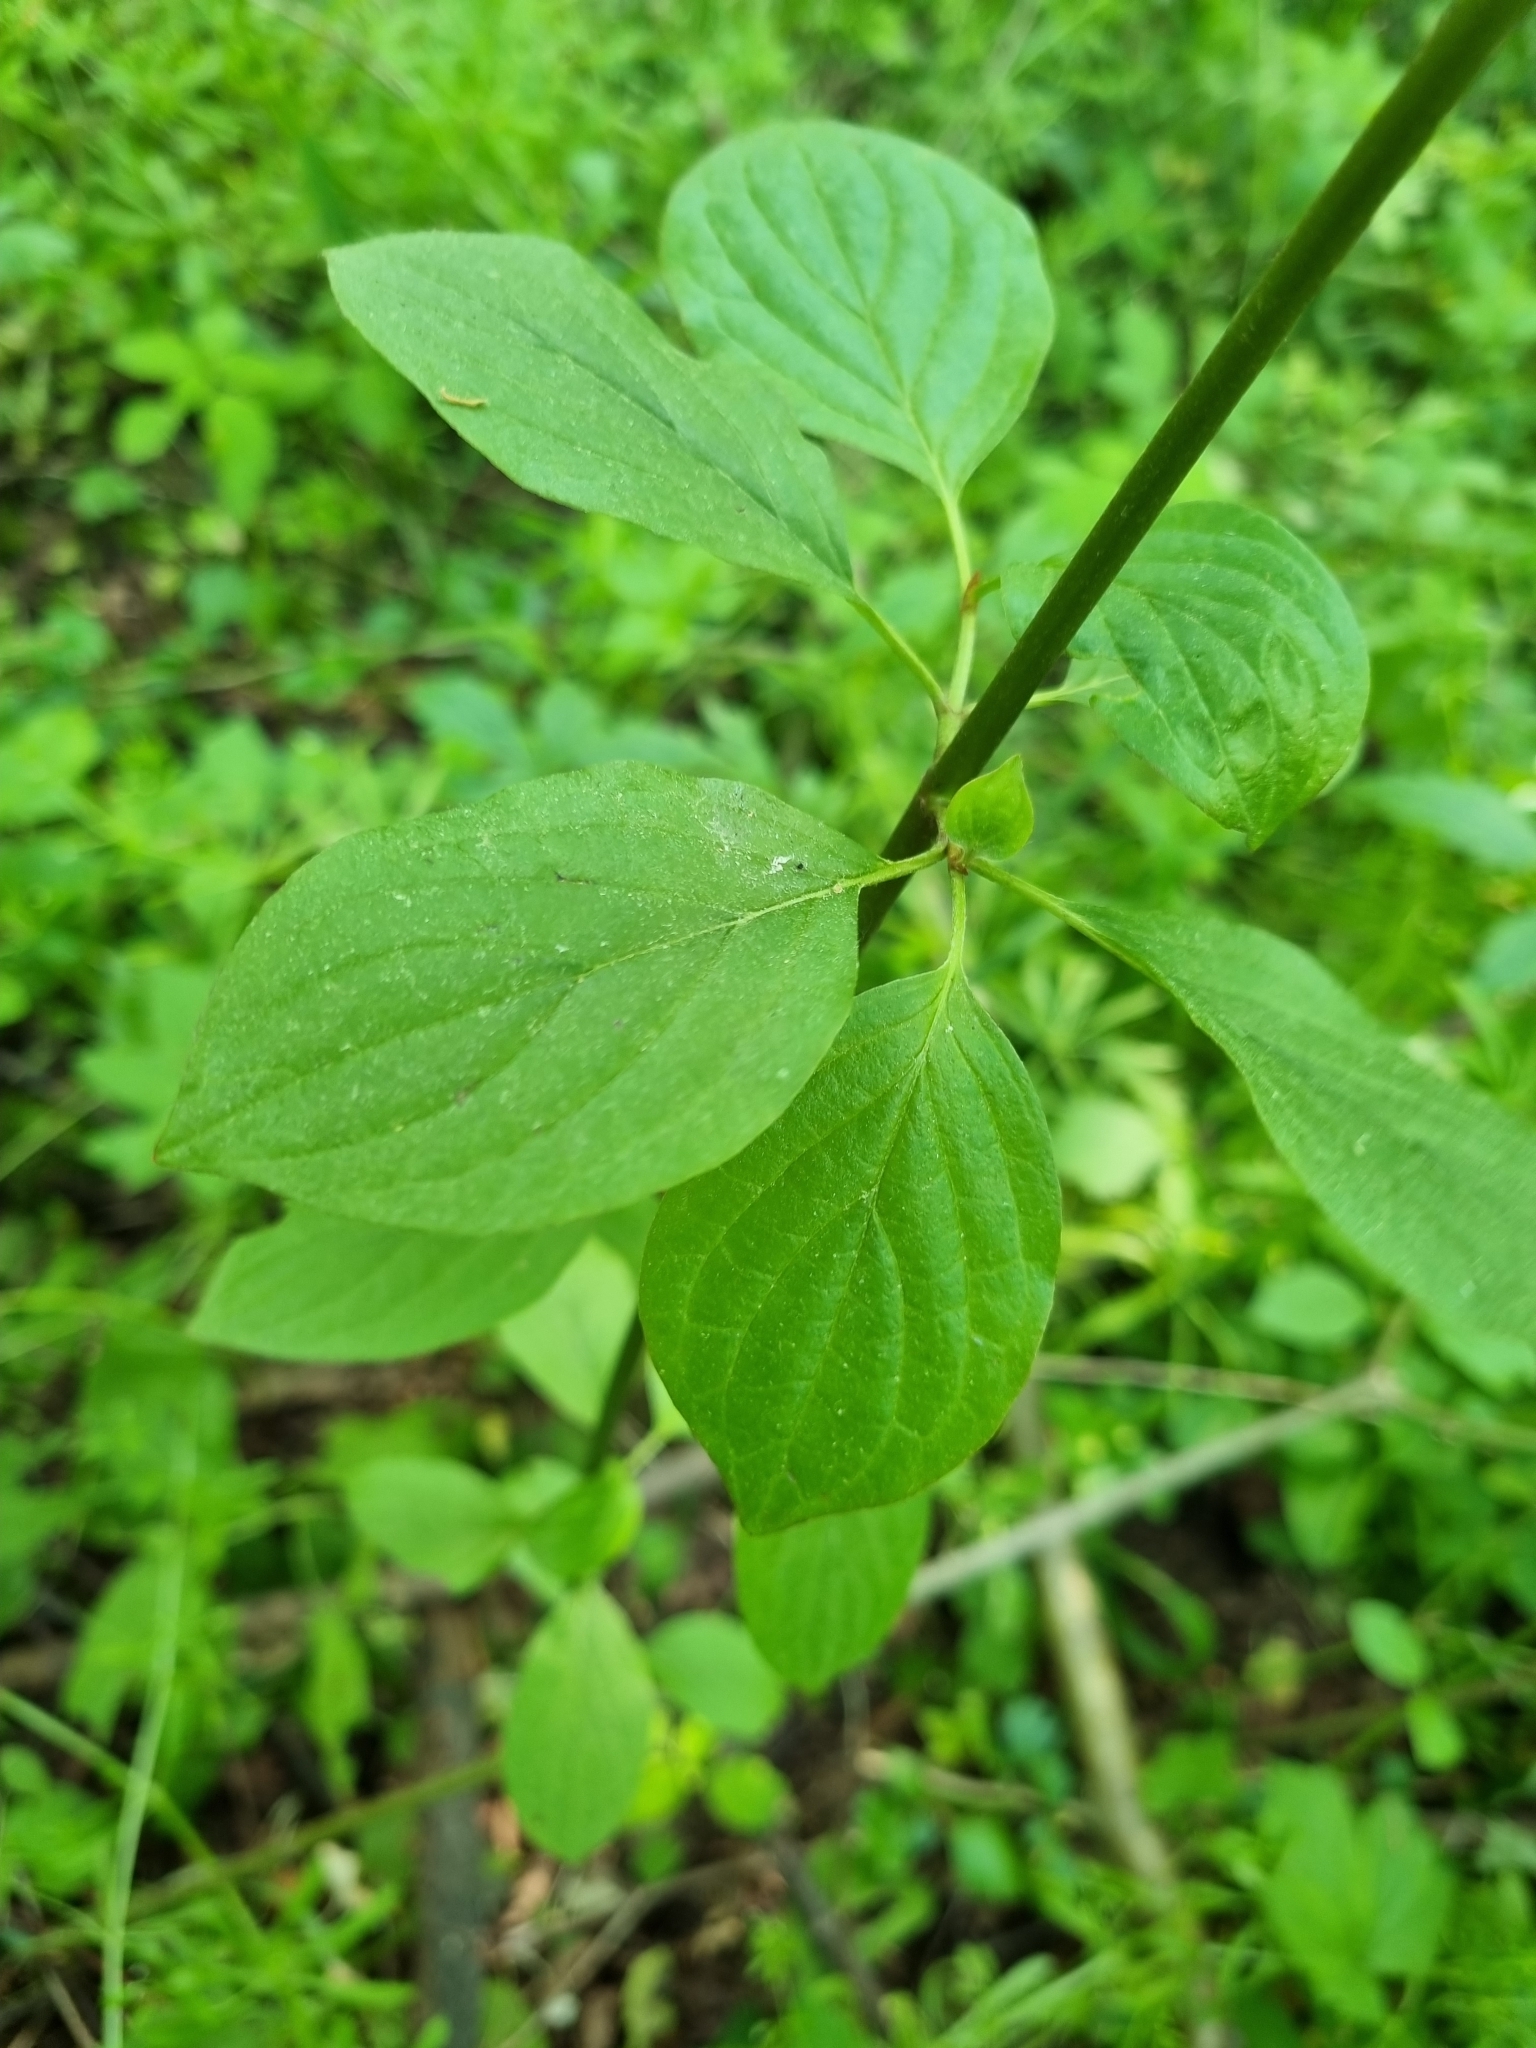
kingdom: Plantae
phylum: Tracheophyta
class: Magnoliopsida
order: Cornales
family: Cornaceae
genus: Cornus
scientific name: Cornus sanguinea
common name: Dogwood
